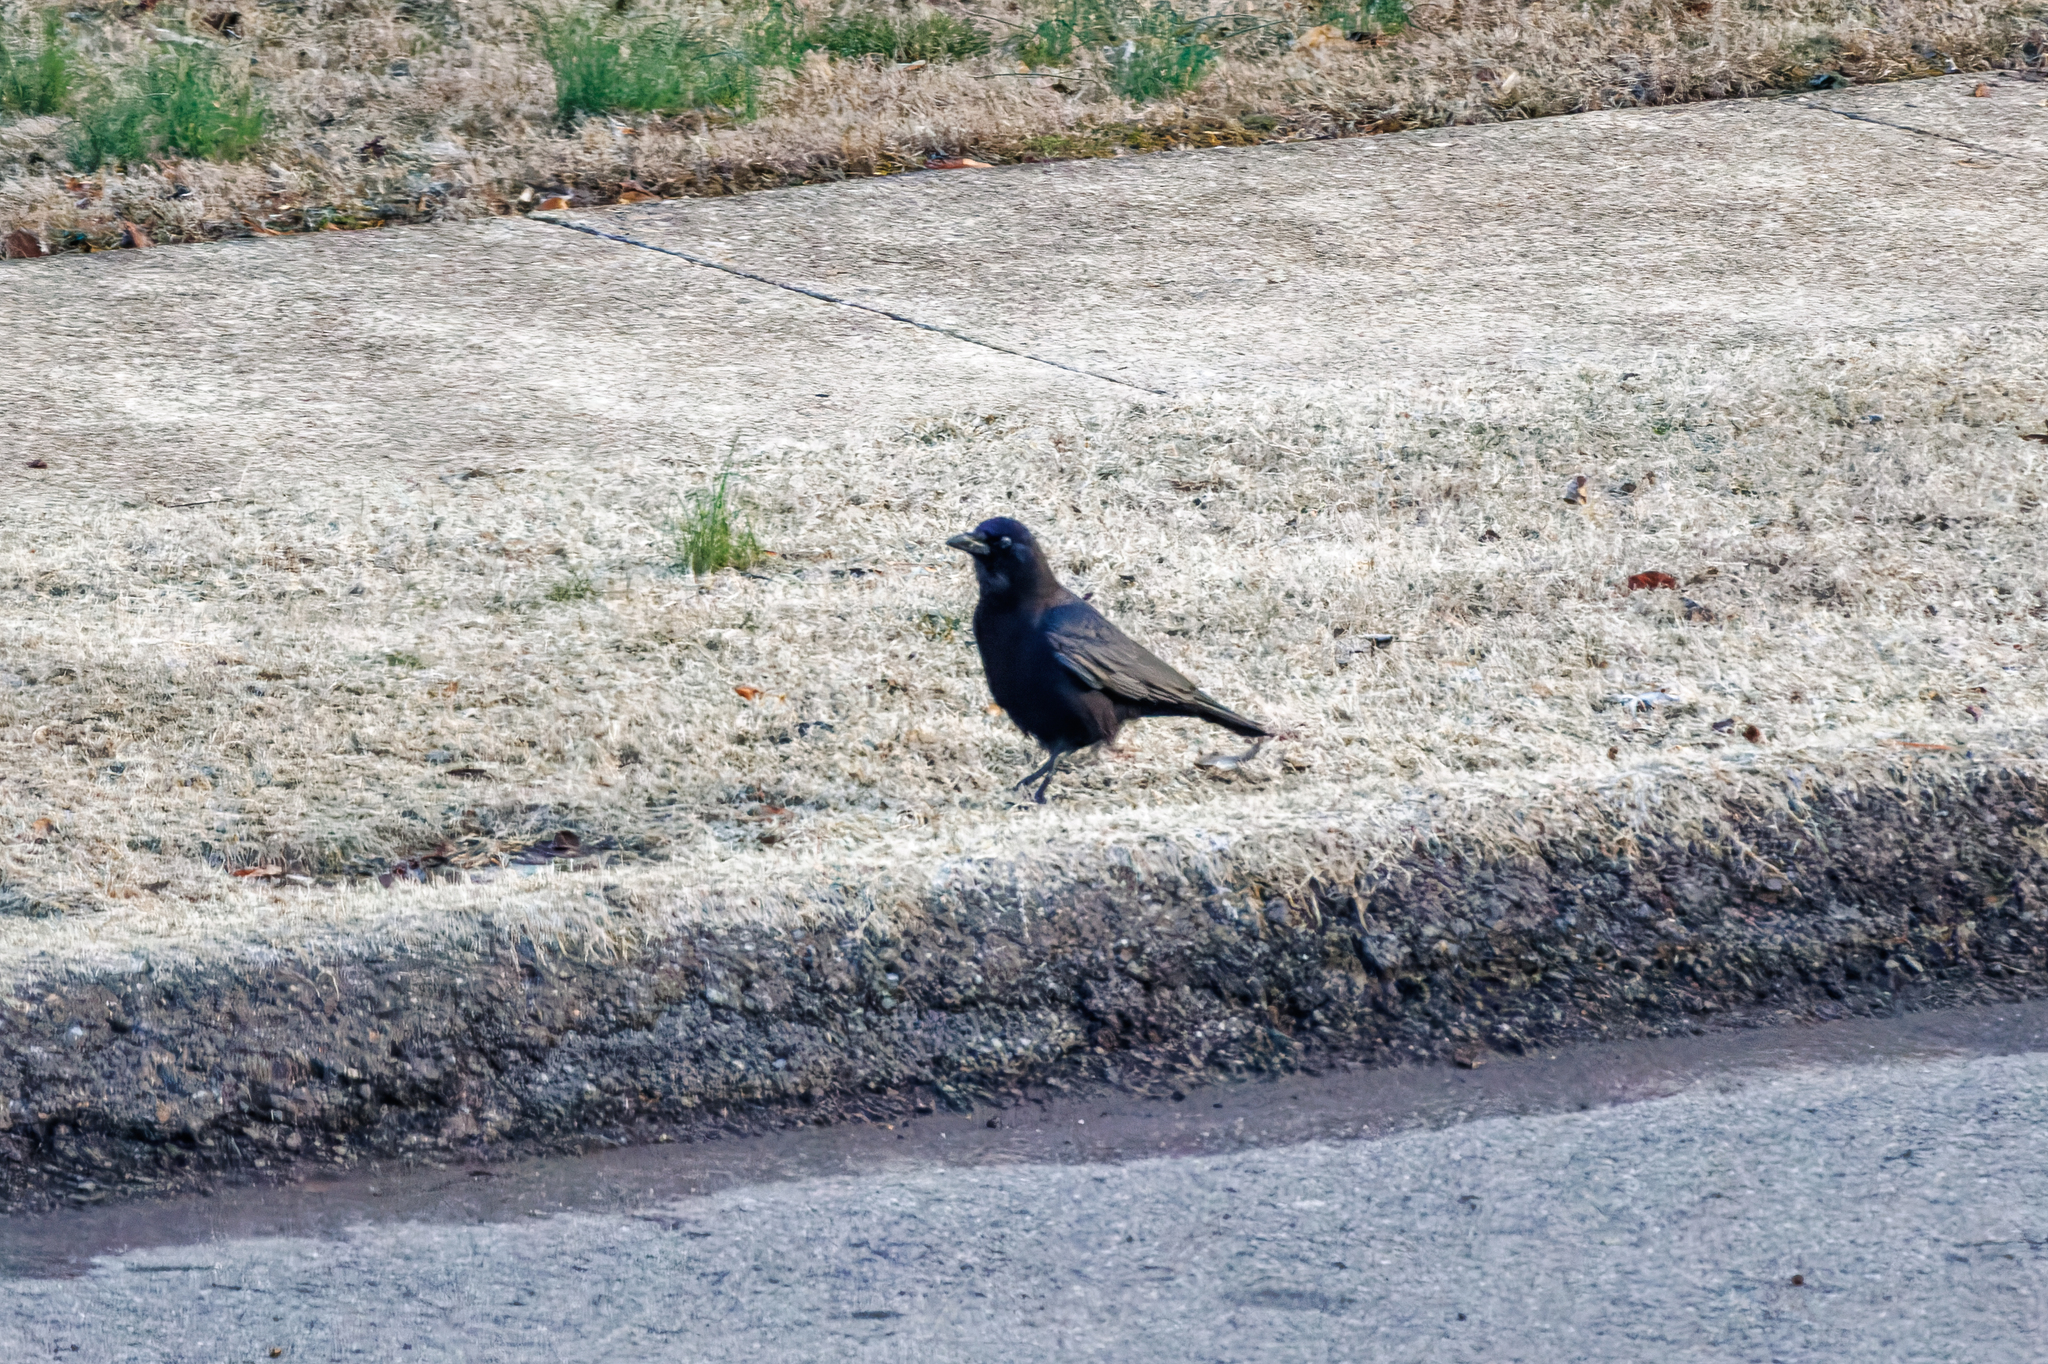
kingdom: Animalia
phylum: Chordata
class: Aves
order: Passeriformes
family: Corvidae
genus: Corvus
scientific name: Corvus brachyrhynchos
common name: American crow
